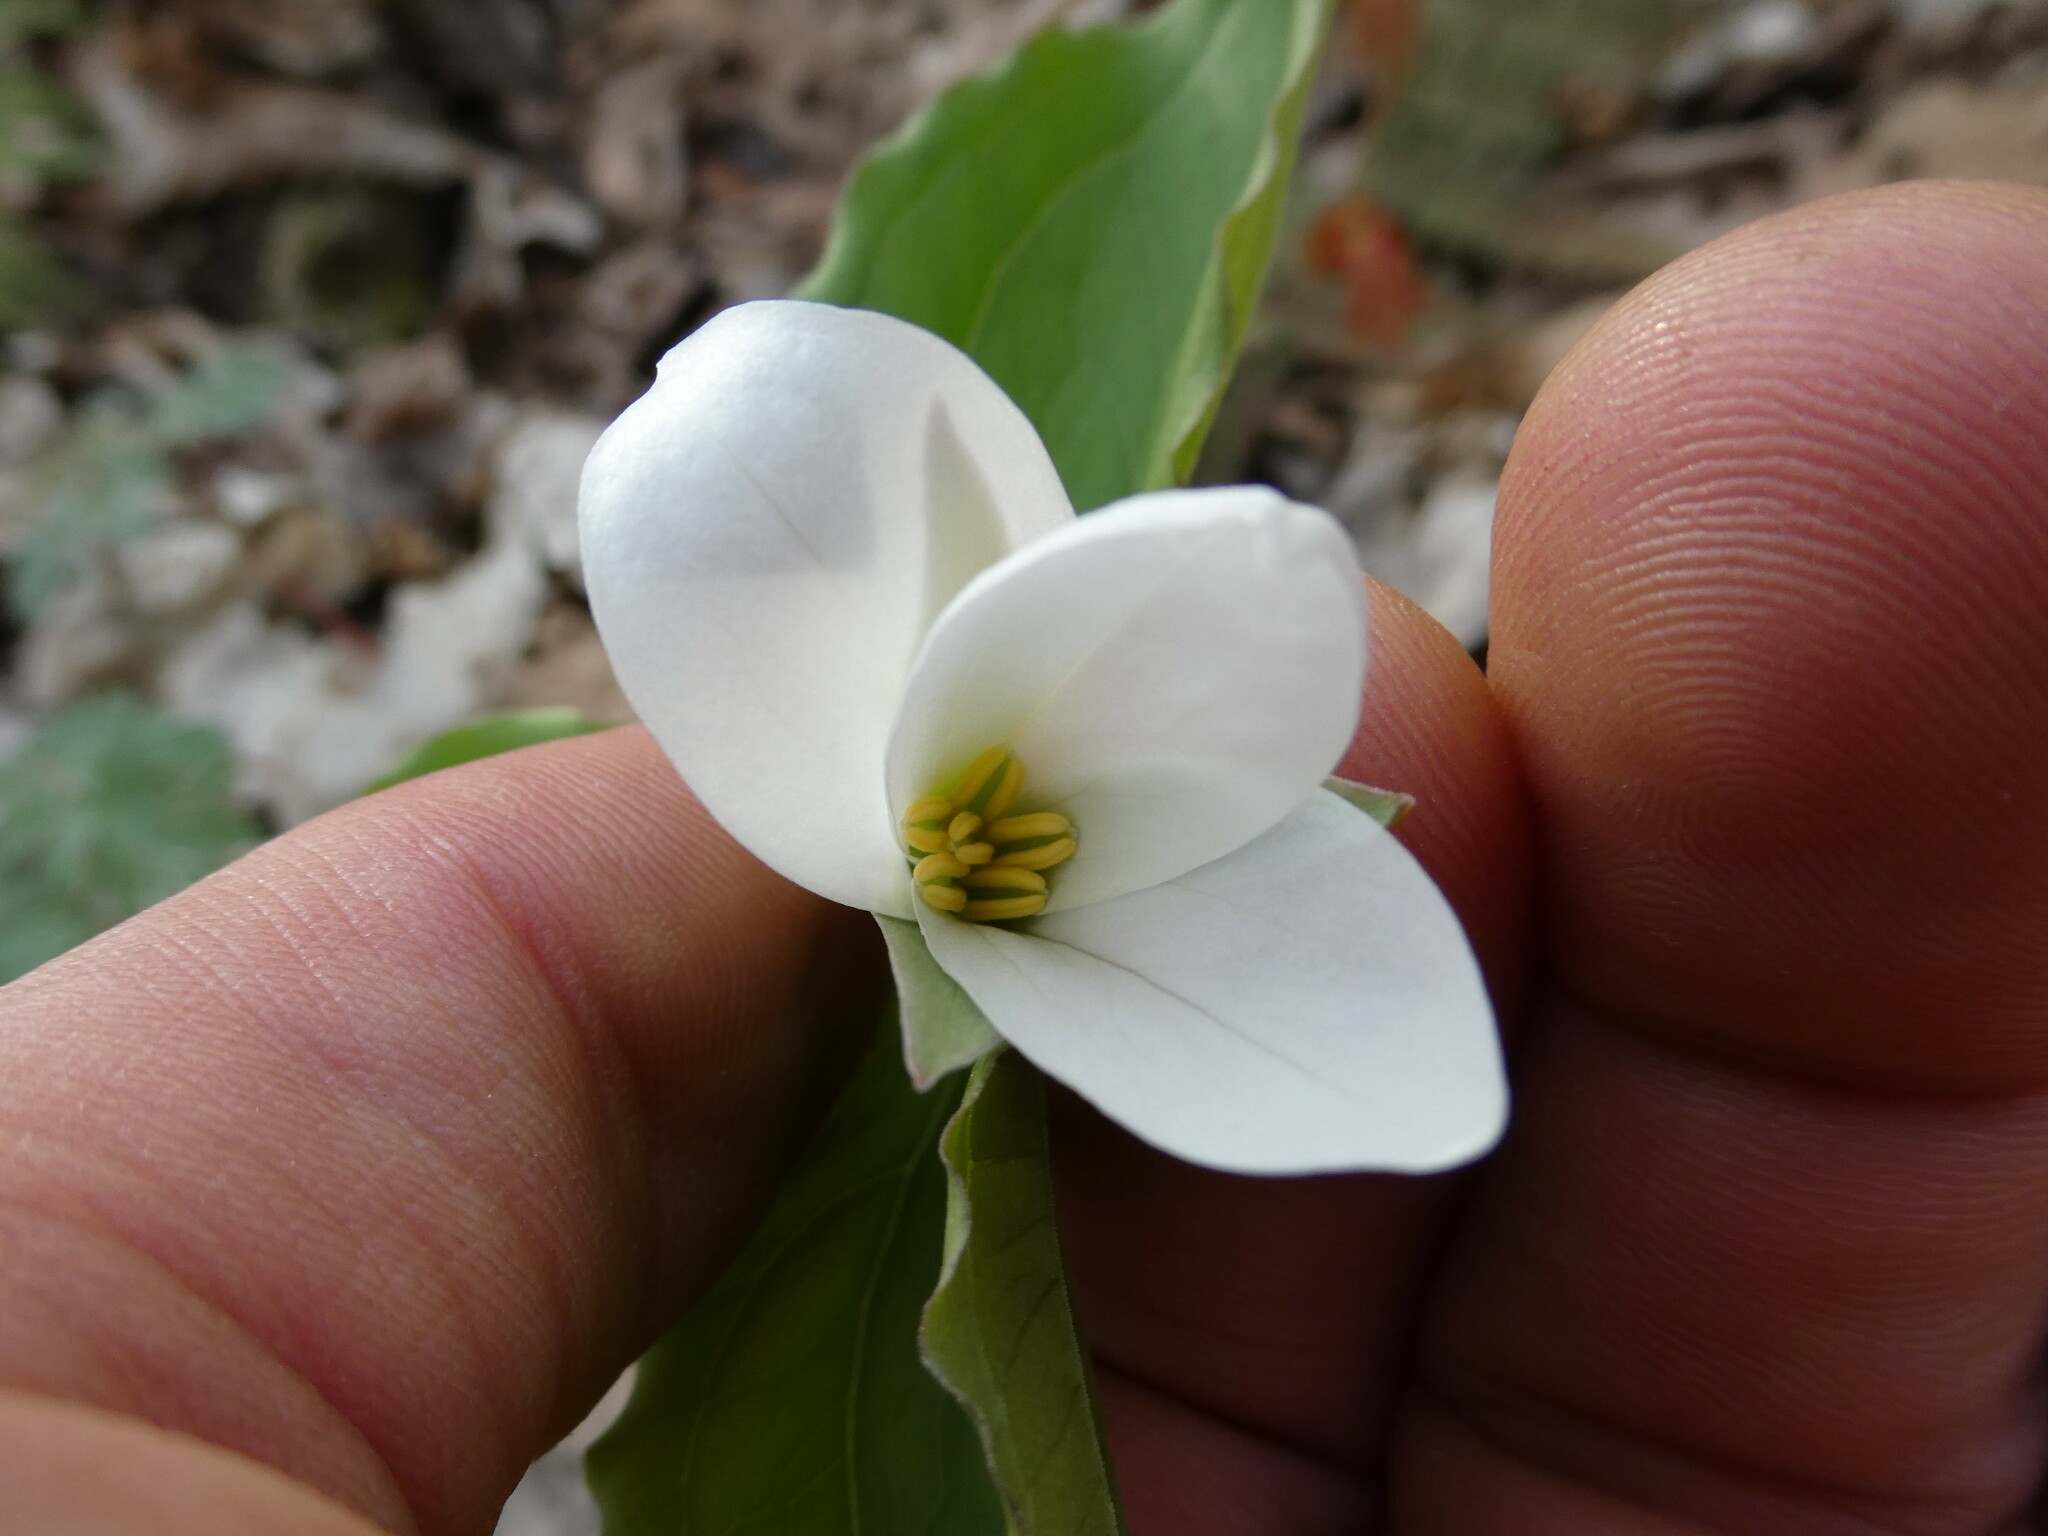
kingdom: Plantae
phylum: Tracheophyta
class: Liliopsida
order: Liliales
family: Melanthiaceae
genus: Trillium
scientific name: Trillium grandiflorum
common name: Great white trillium
